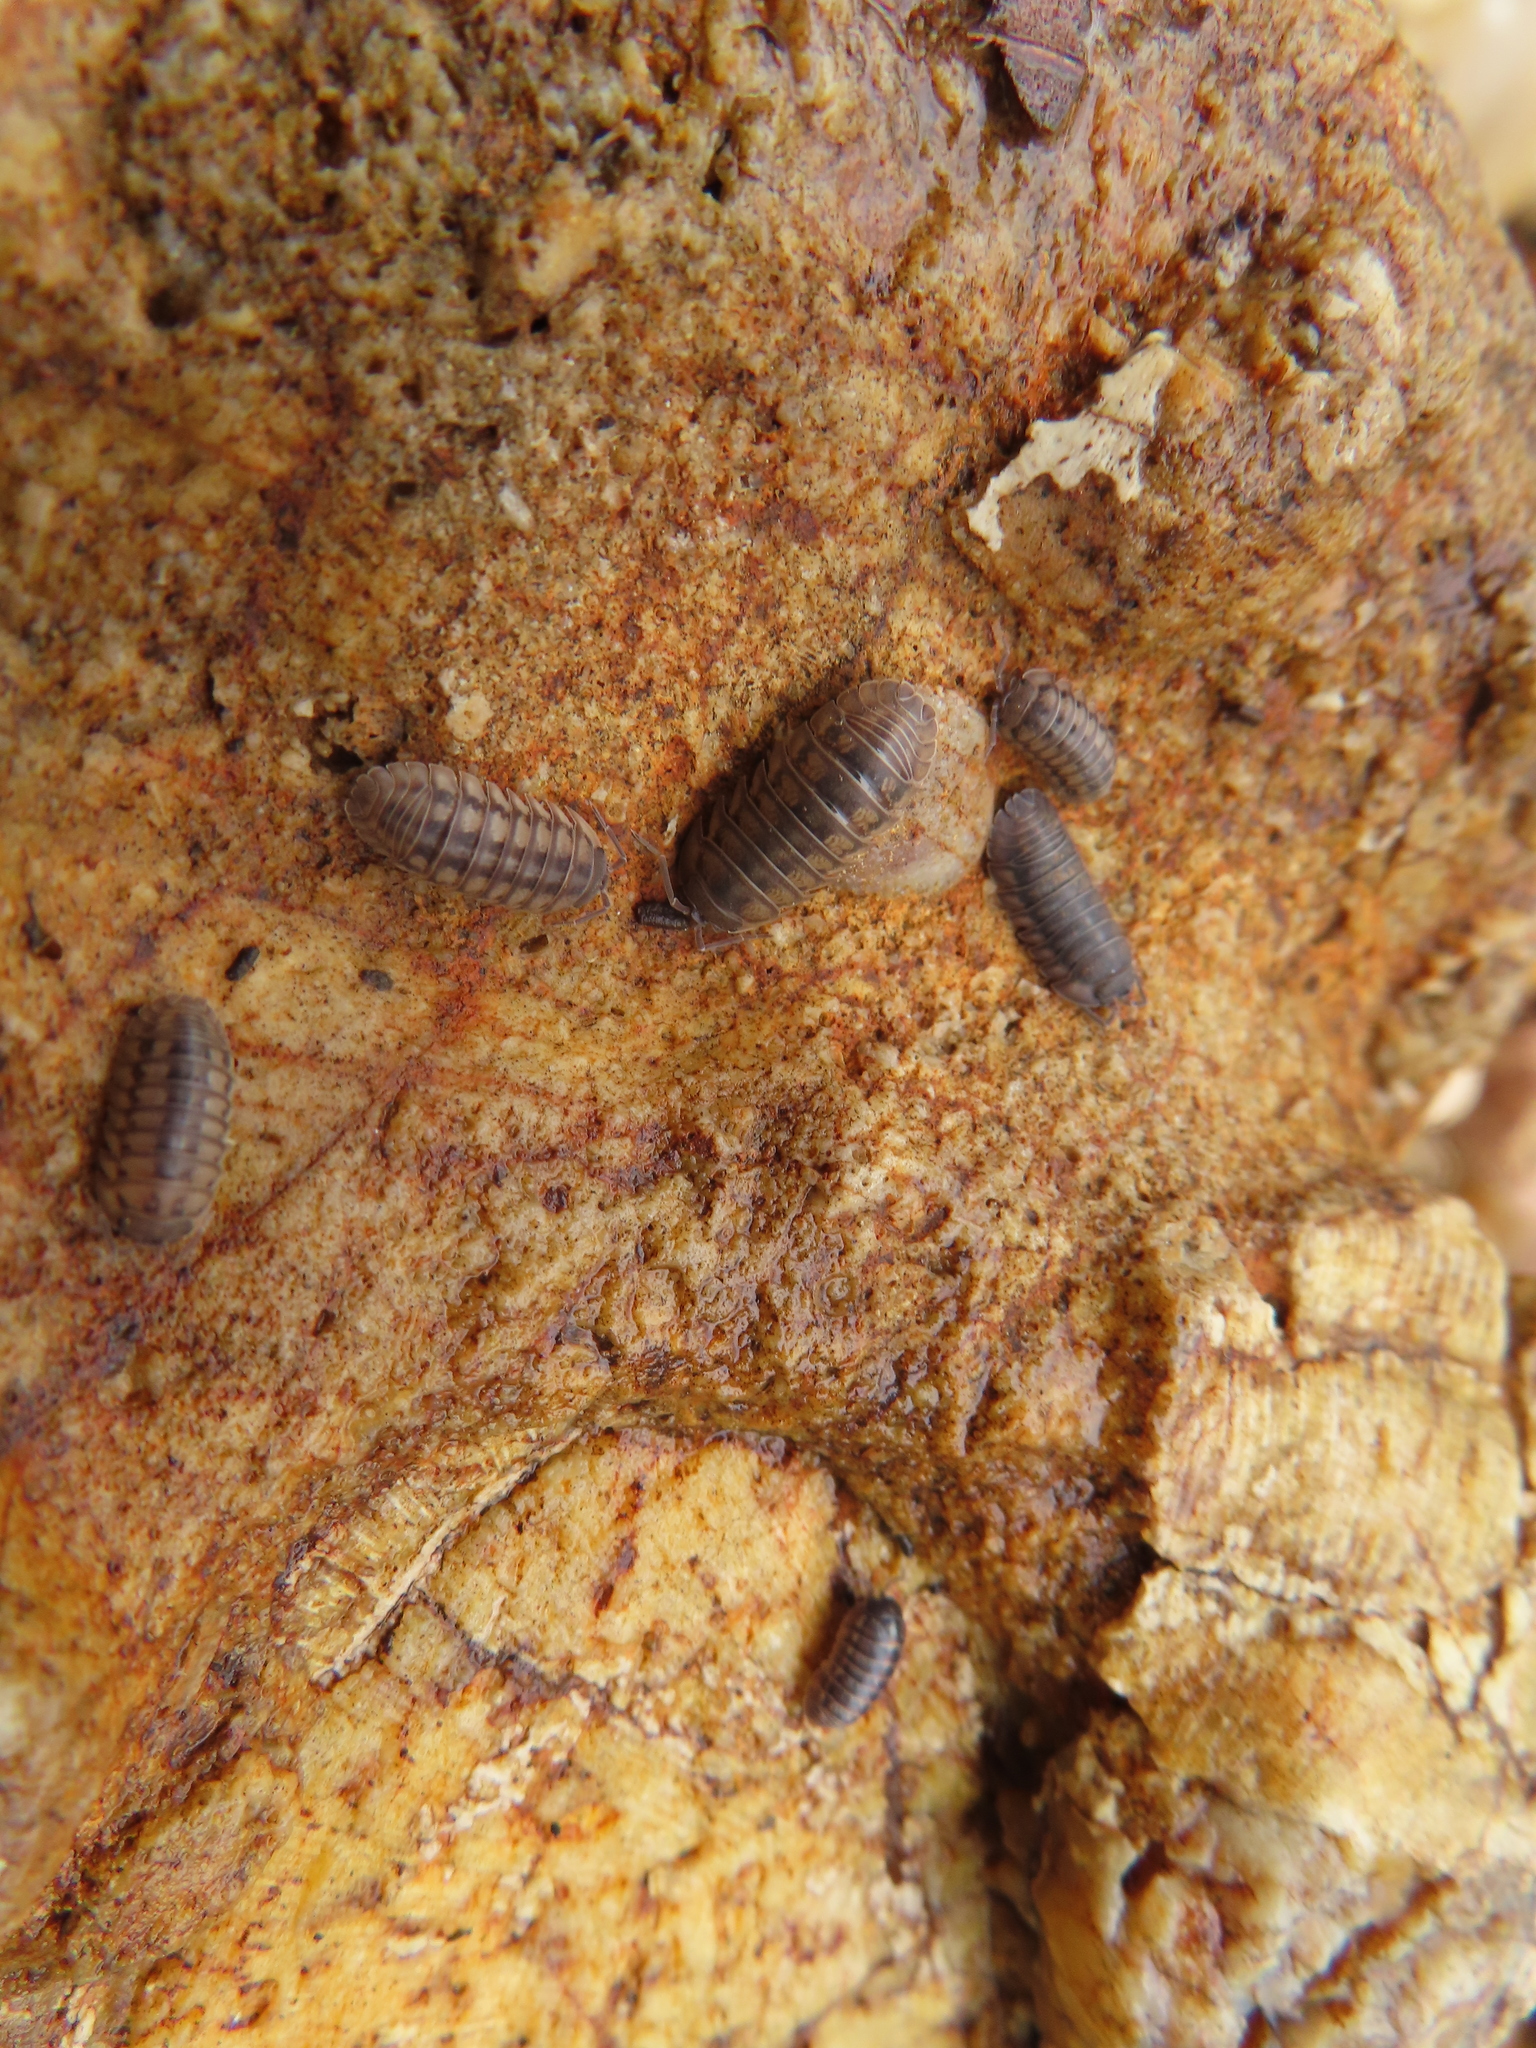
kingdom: Animalia
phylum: Arthropoda
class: Malacostraca
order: Isopoda
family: Armadillidiidae
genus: Armadillidium
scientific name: Armadillidium nasatum
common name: Isopod
